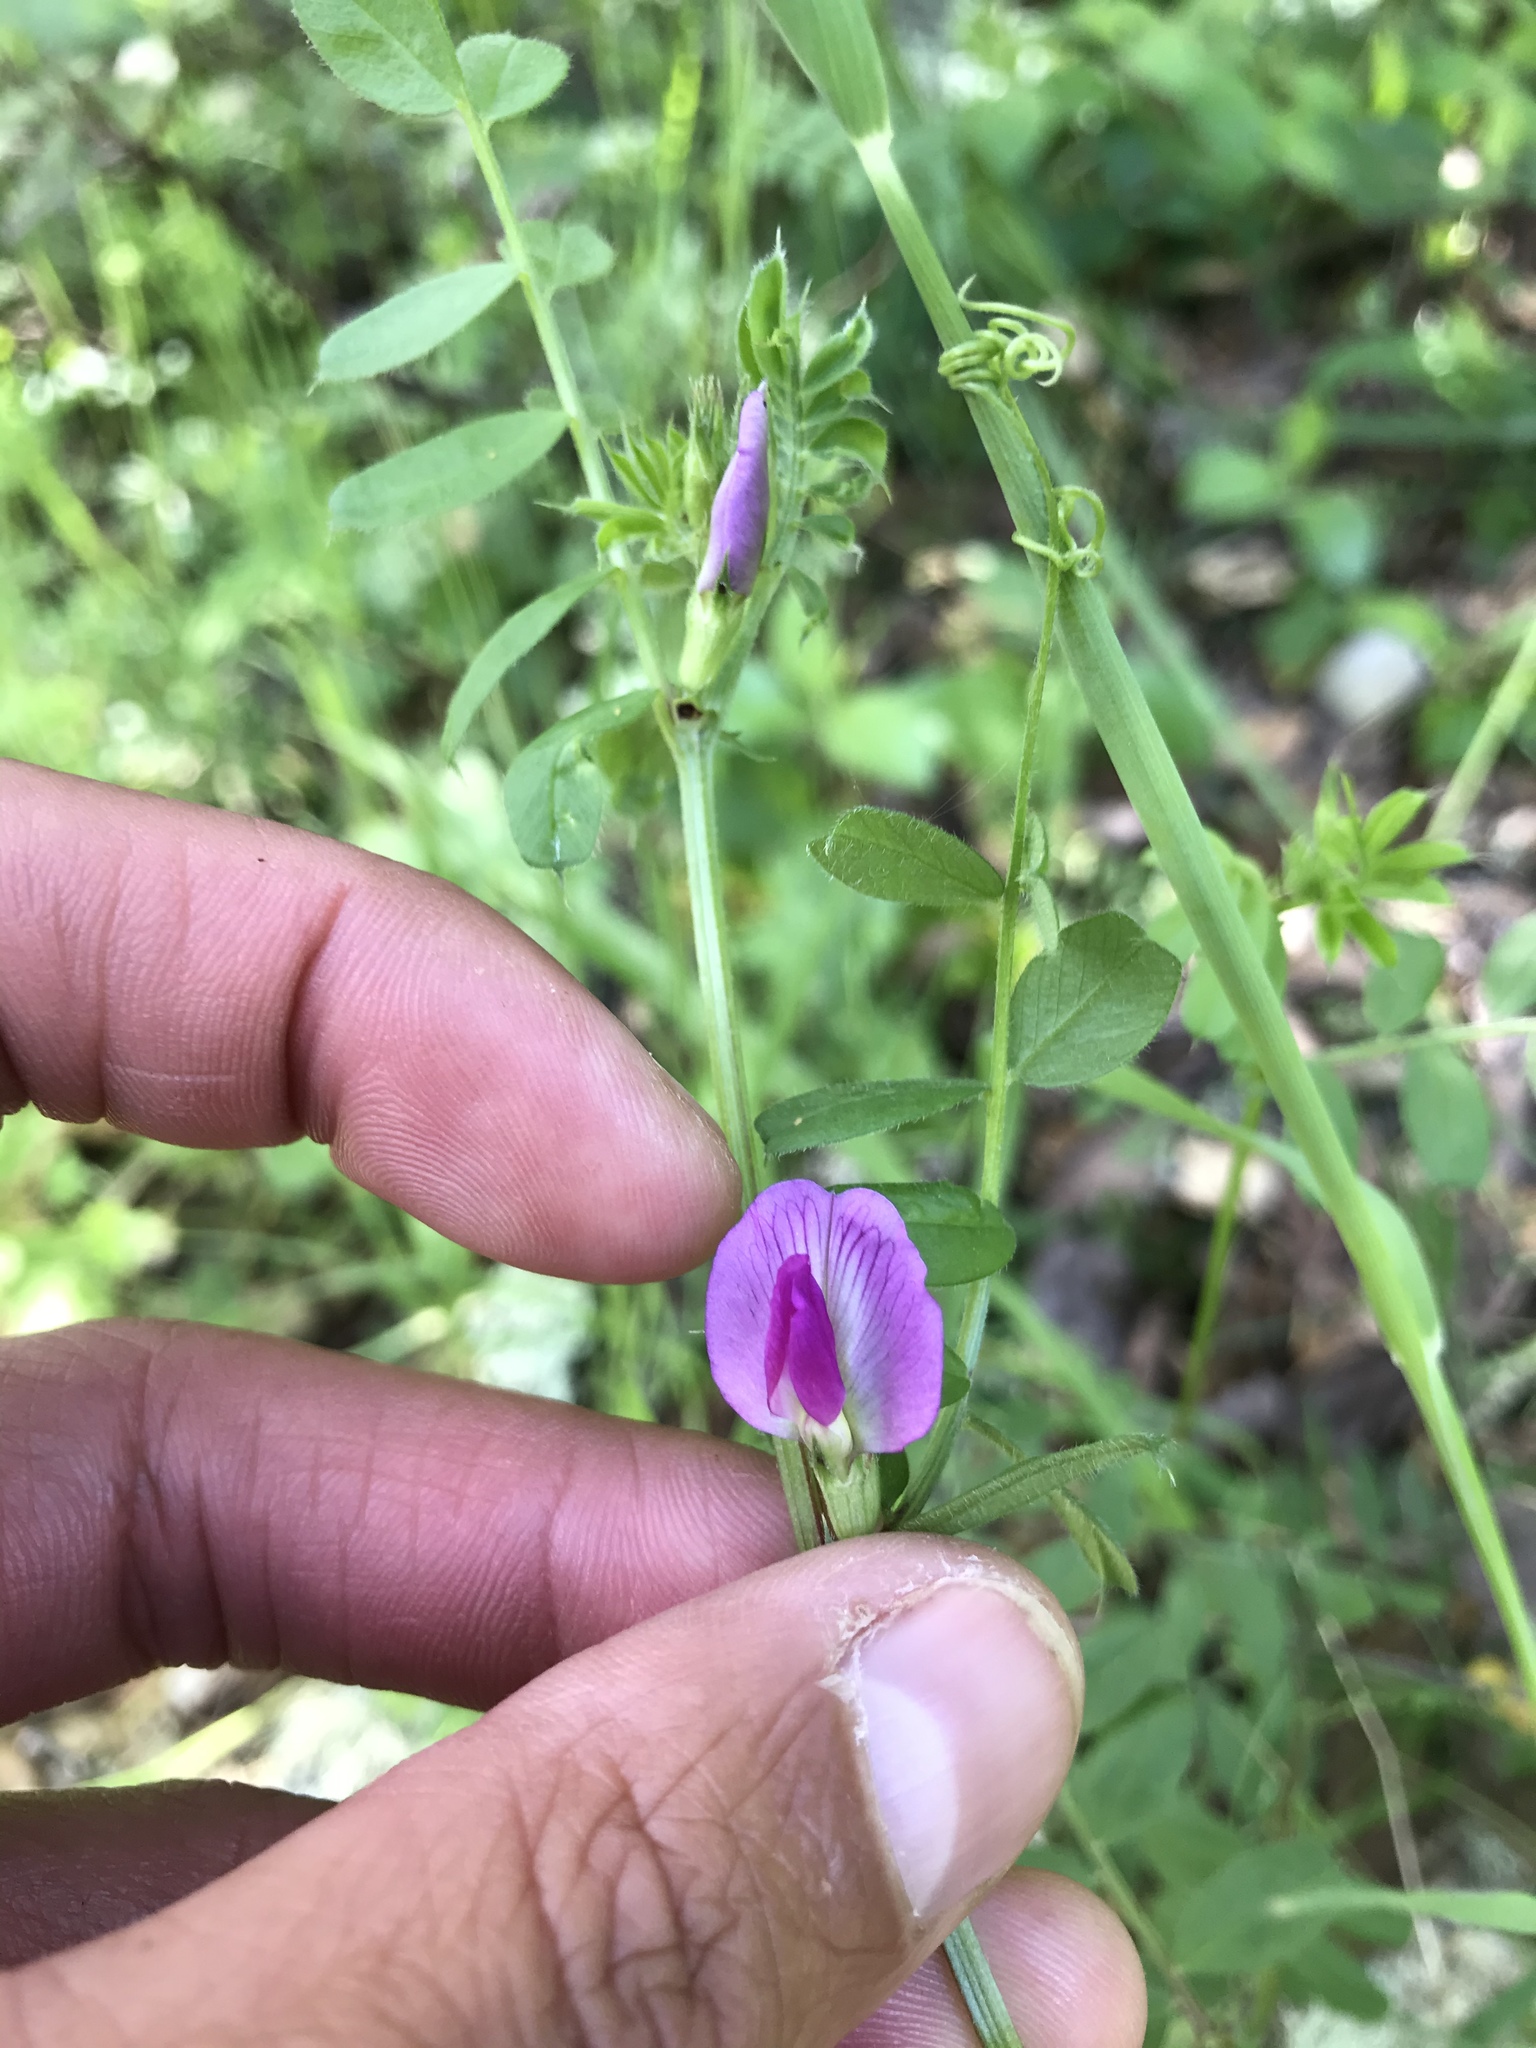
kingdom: Plantae
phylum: Tracheophyta
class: Magnoliopsida
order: Fabales
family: Fabaceae
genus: Vicia
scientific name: Vicia sativa
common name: Garden vetch
